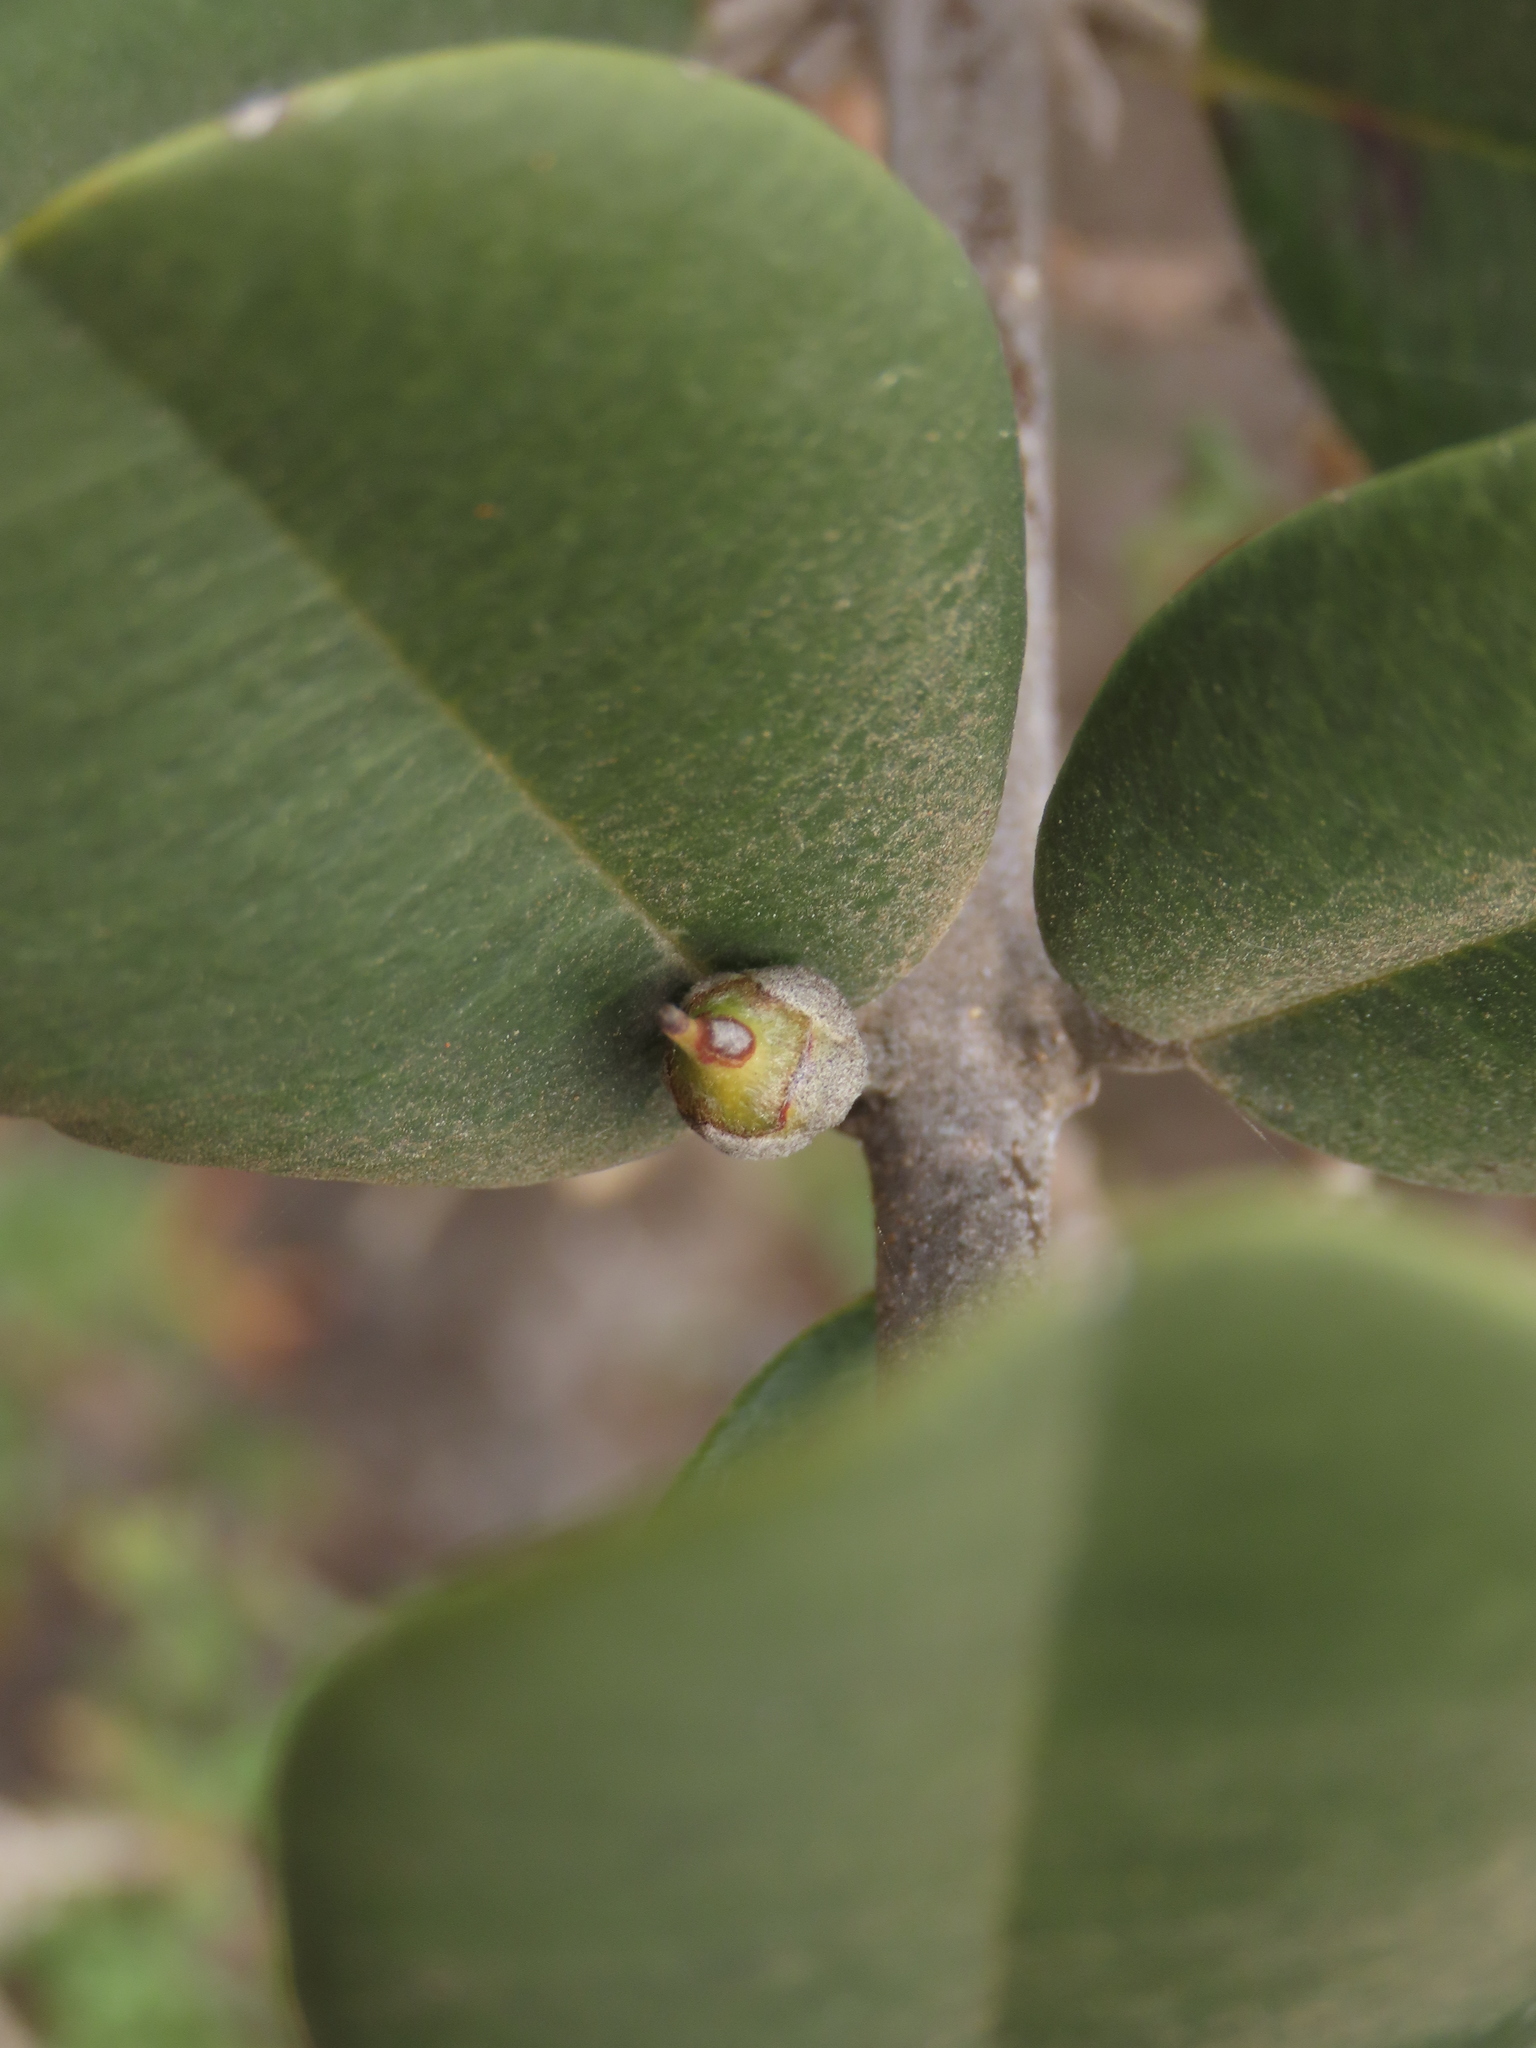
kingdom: Plantae
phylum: Tracheophyta
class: Magnoliopsida
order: Ericales
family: Sapotaceae
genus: Pouteria
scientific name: Pouteria valparadisaea
